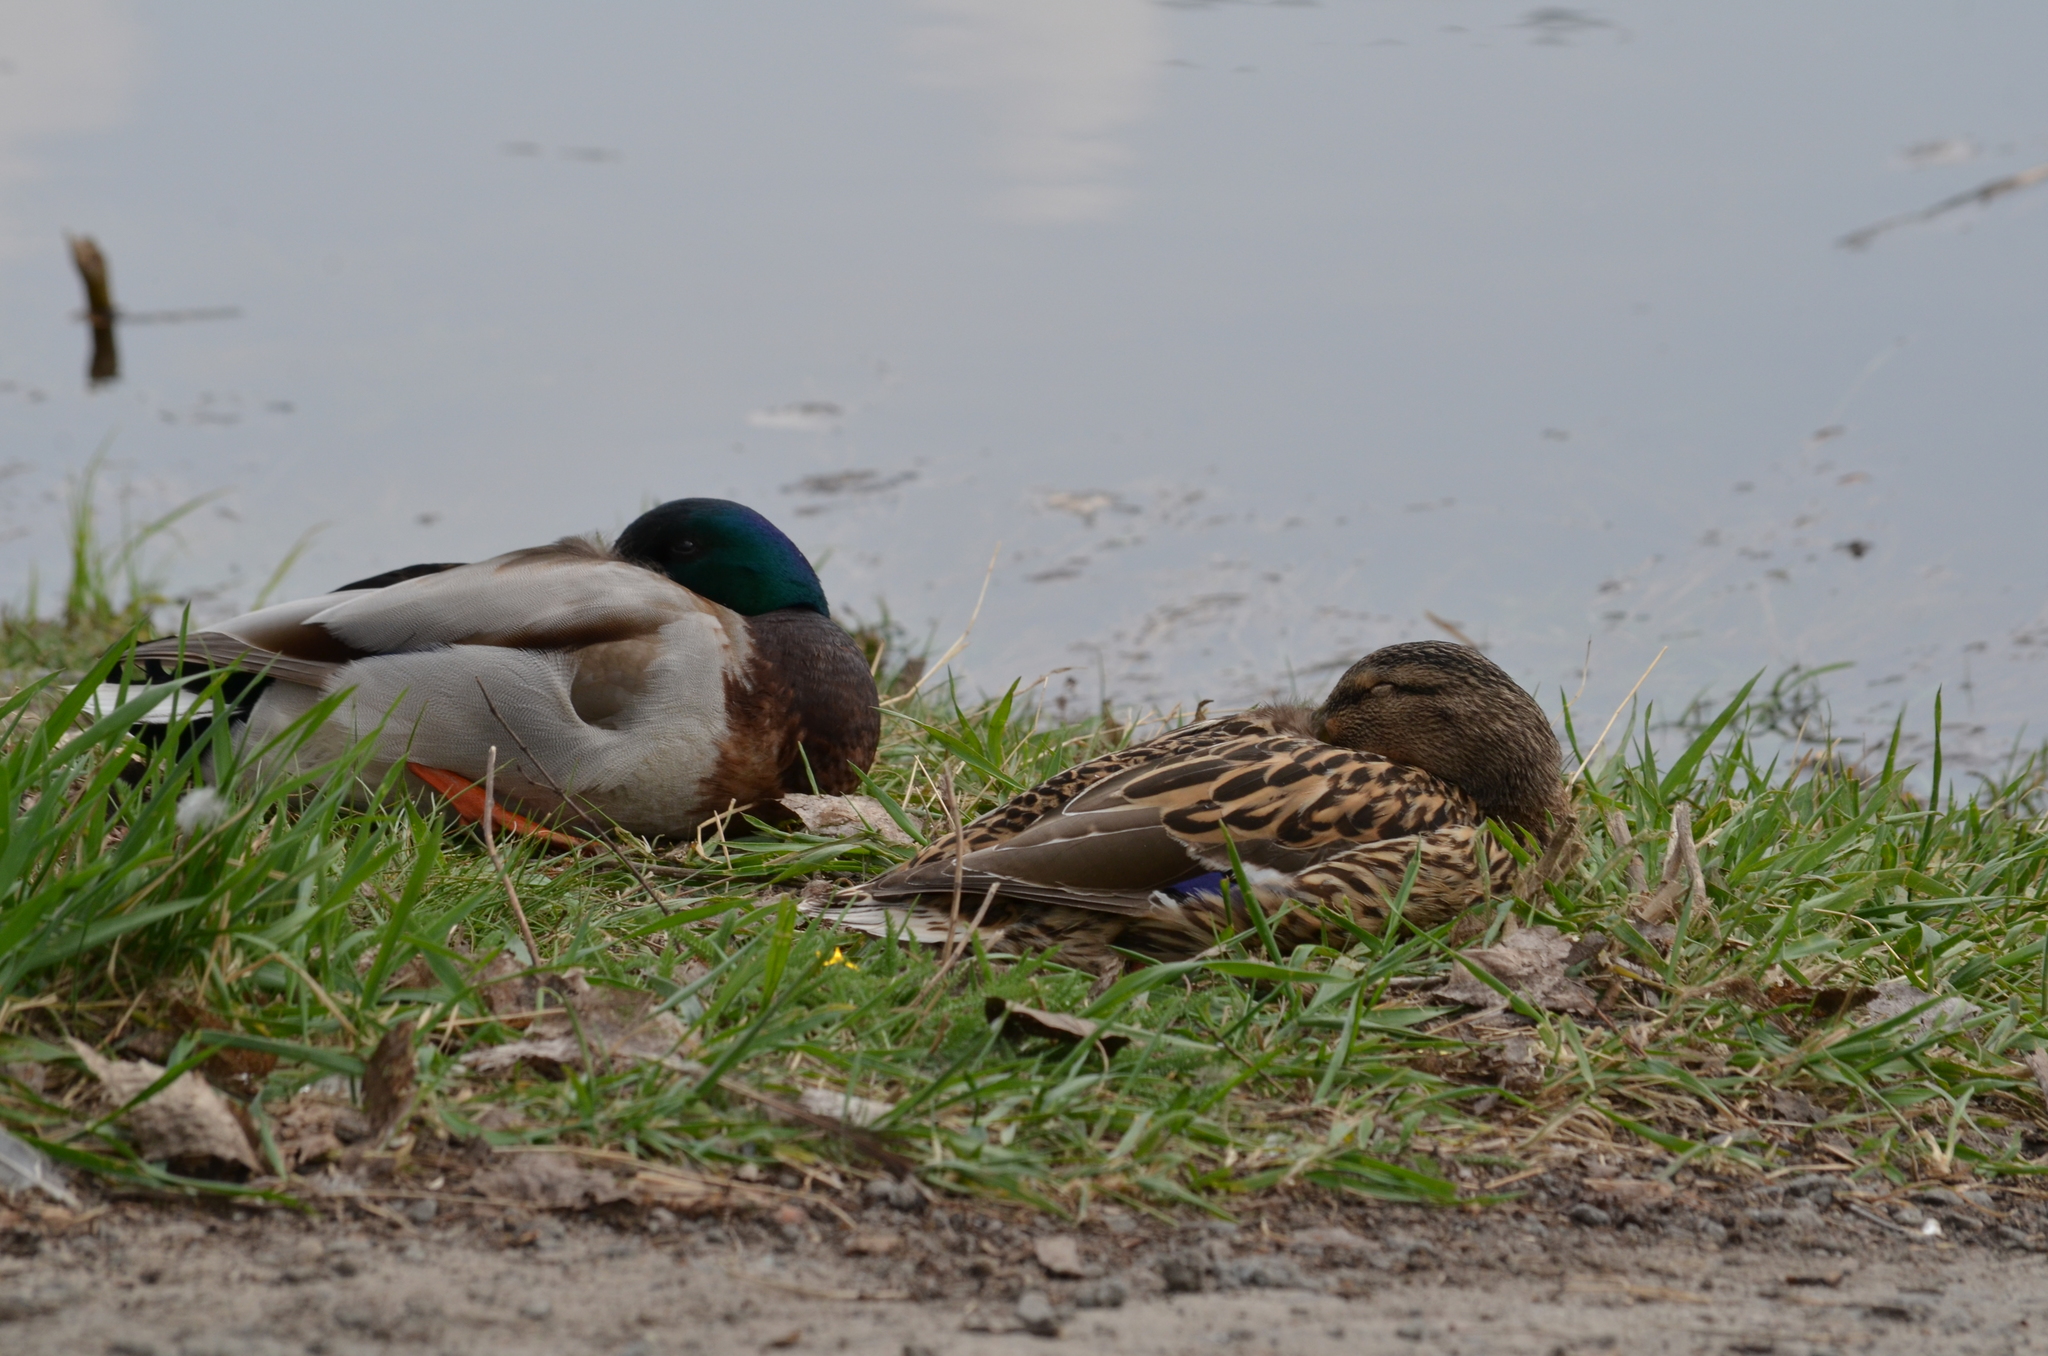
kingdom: Animalia
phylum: Chordata
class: Aves
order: Anseriformes
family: Anatidae
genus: Anas
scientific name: Anas platyrhynchos
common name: Mallard
